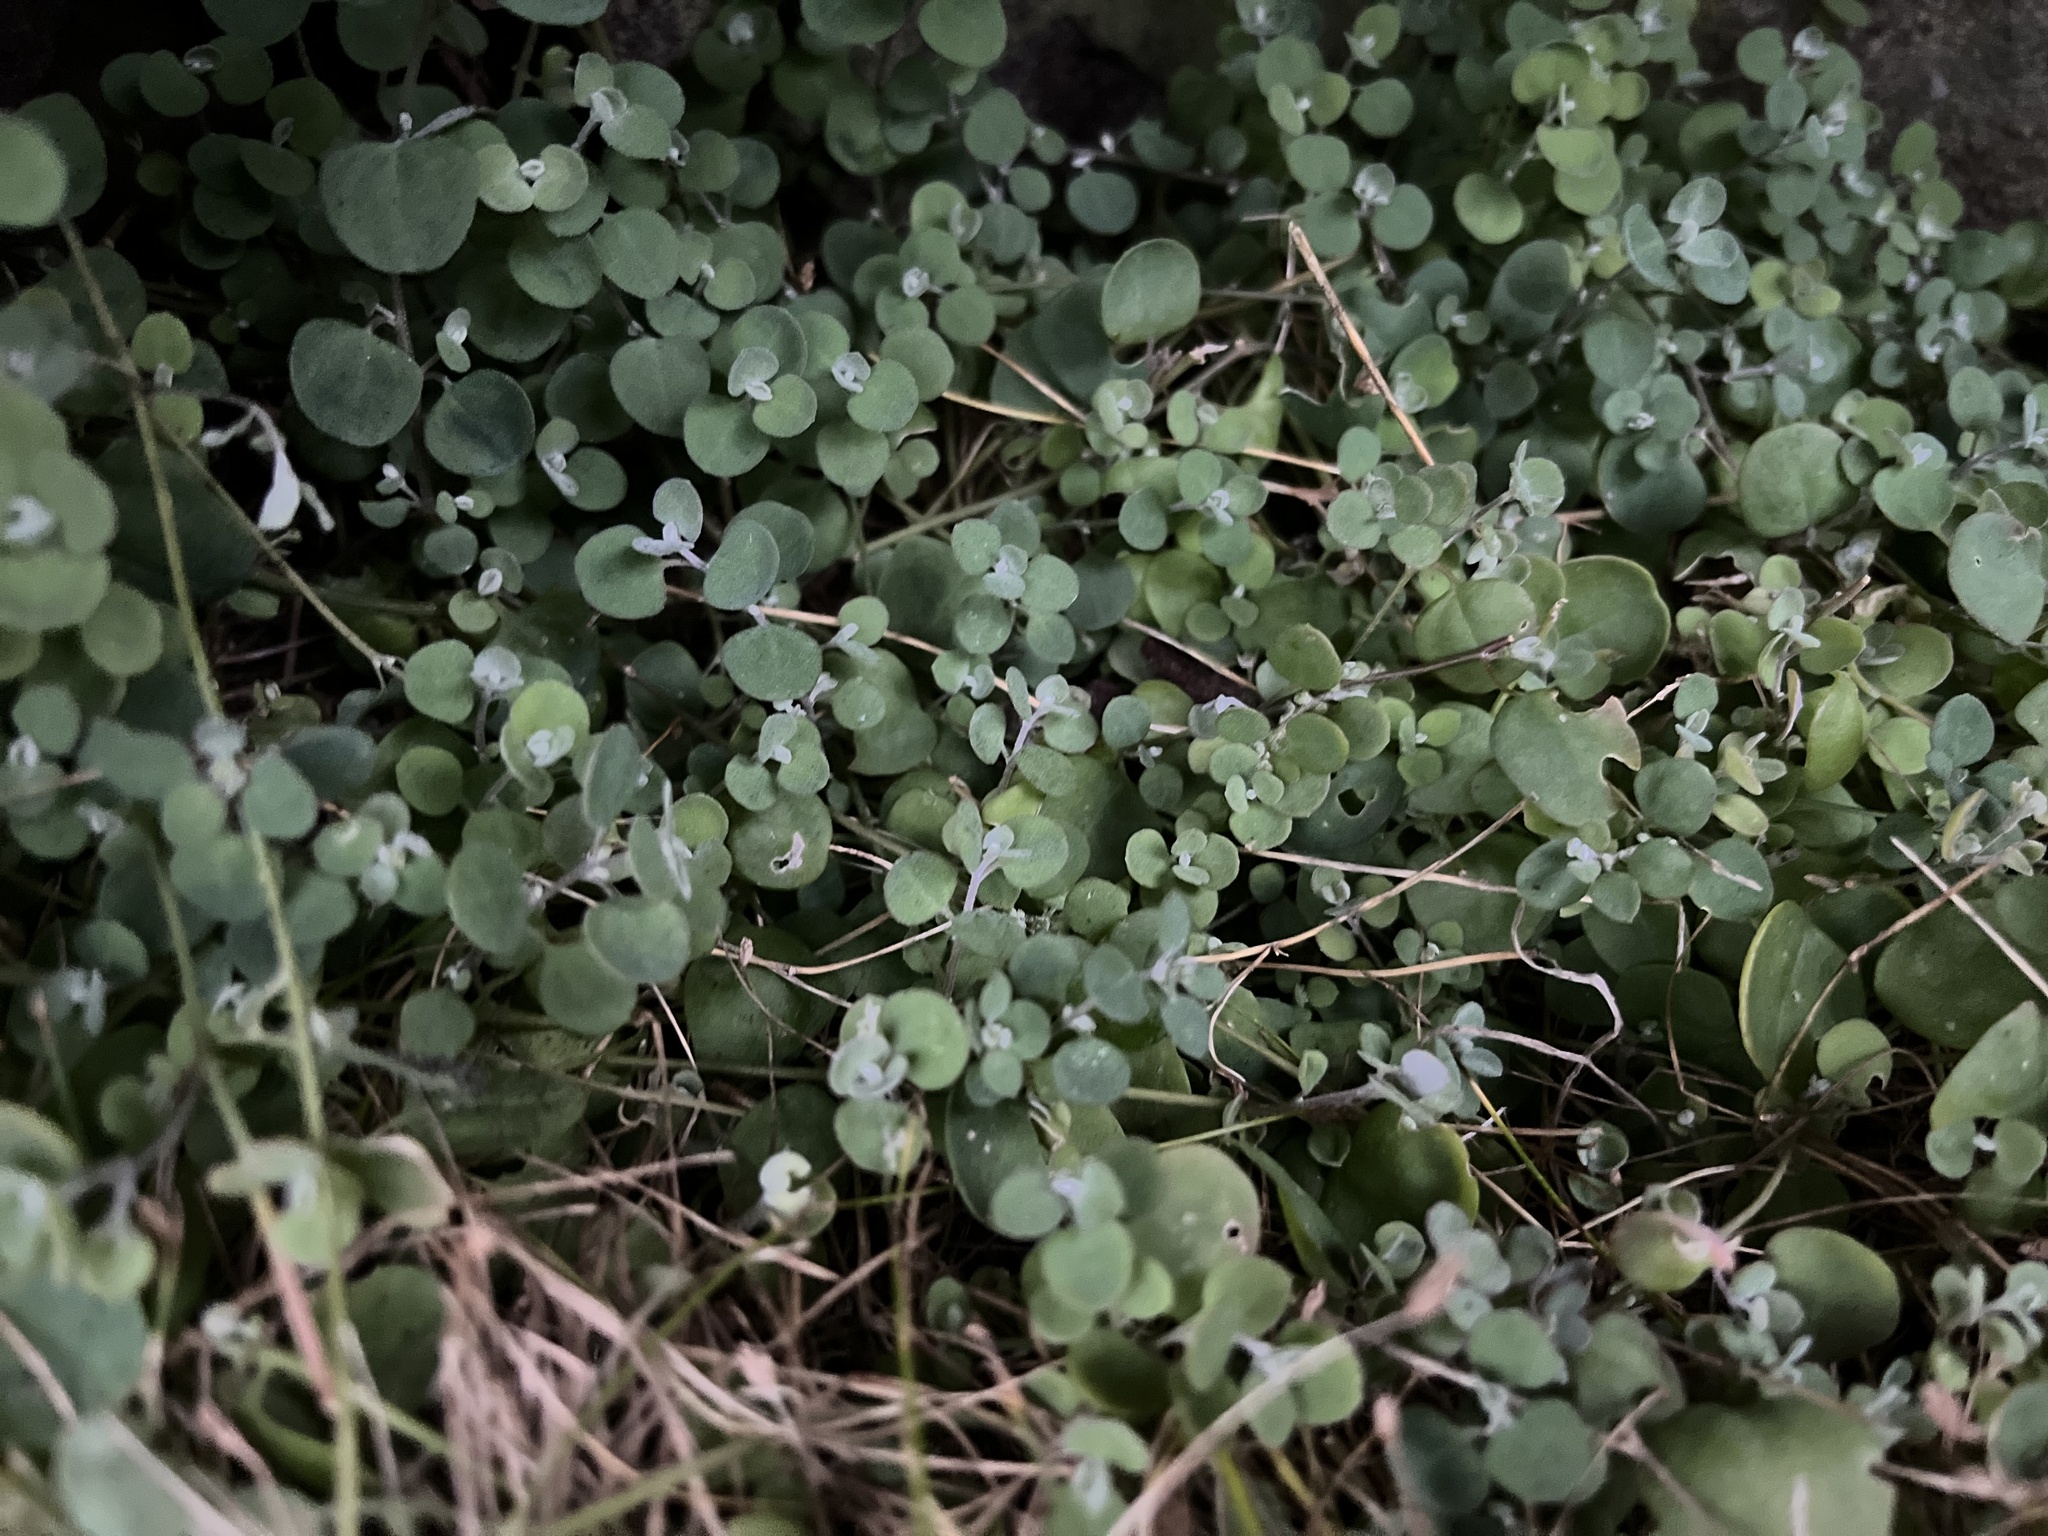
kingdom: Plantae
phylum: Tracheophyta
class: Magnoliopsida
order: Caryophyllales
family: Amaranthaceae
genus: Chenopodium
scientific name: Chenopodium triandrum
